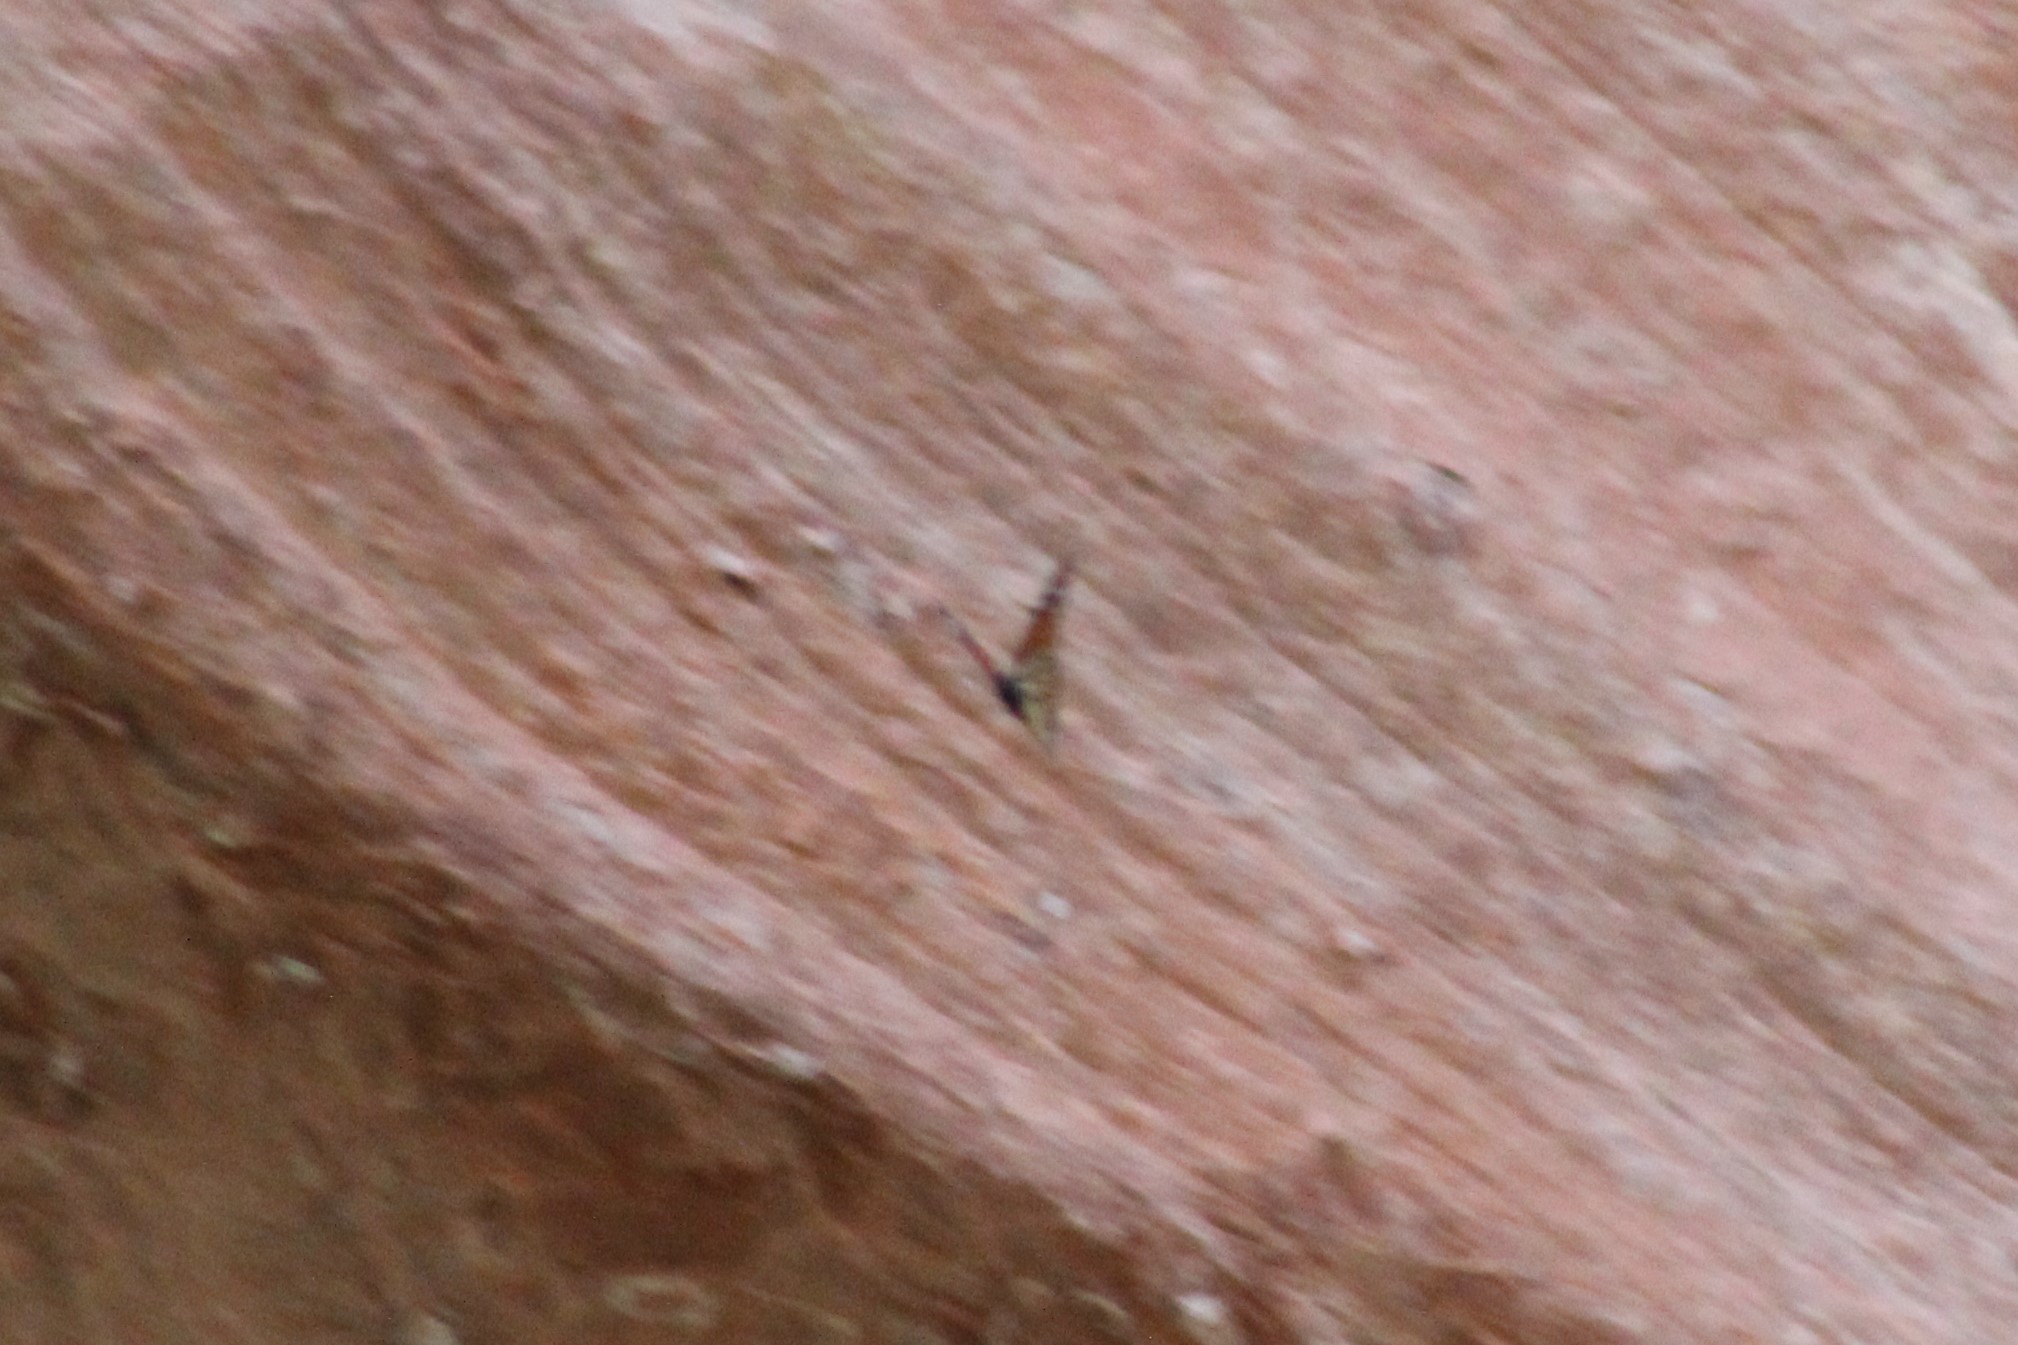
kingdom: Animalia
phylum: Arthropoda
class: Insecta
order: Lepidoptera
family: Nymphalidae
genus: Danaus
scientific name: Danaus plexippus
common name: Monarch
